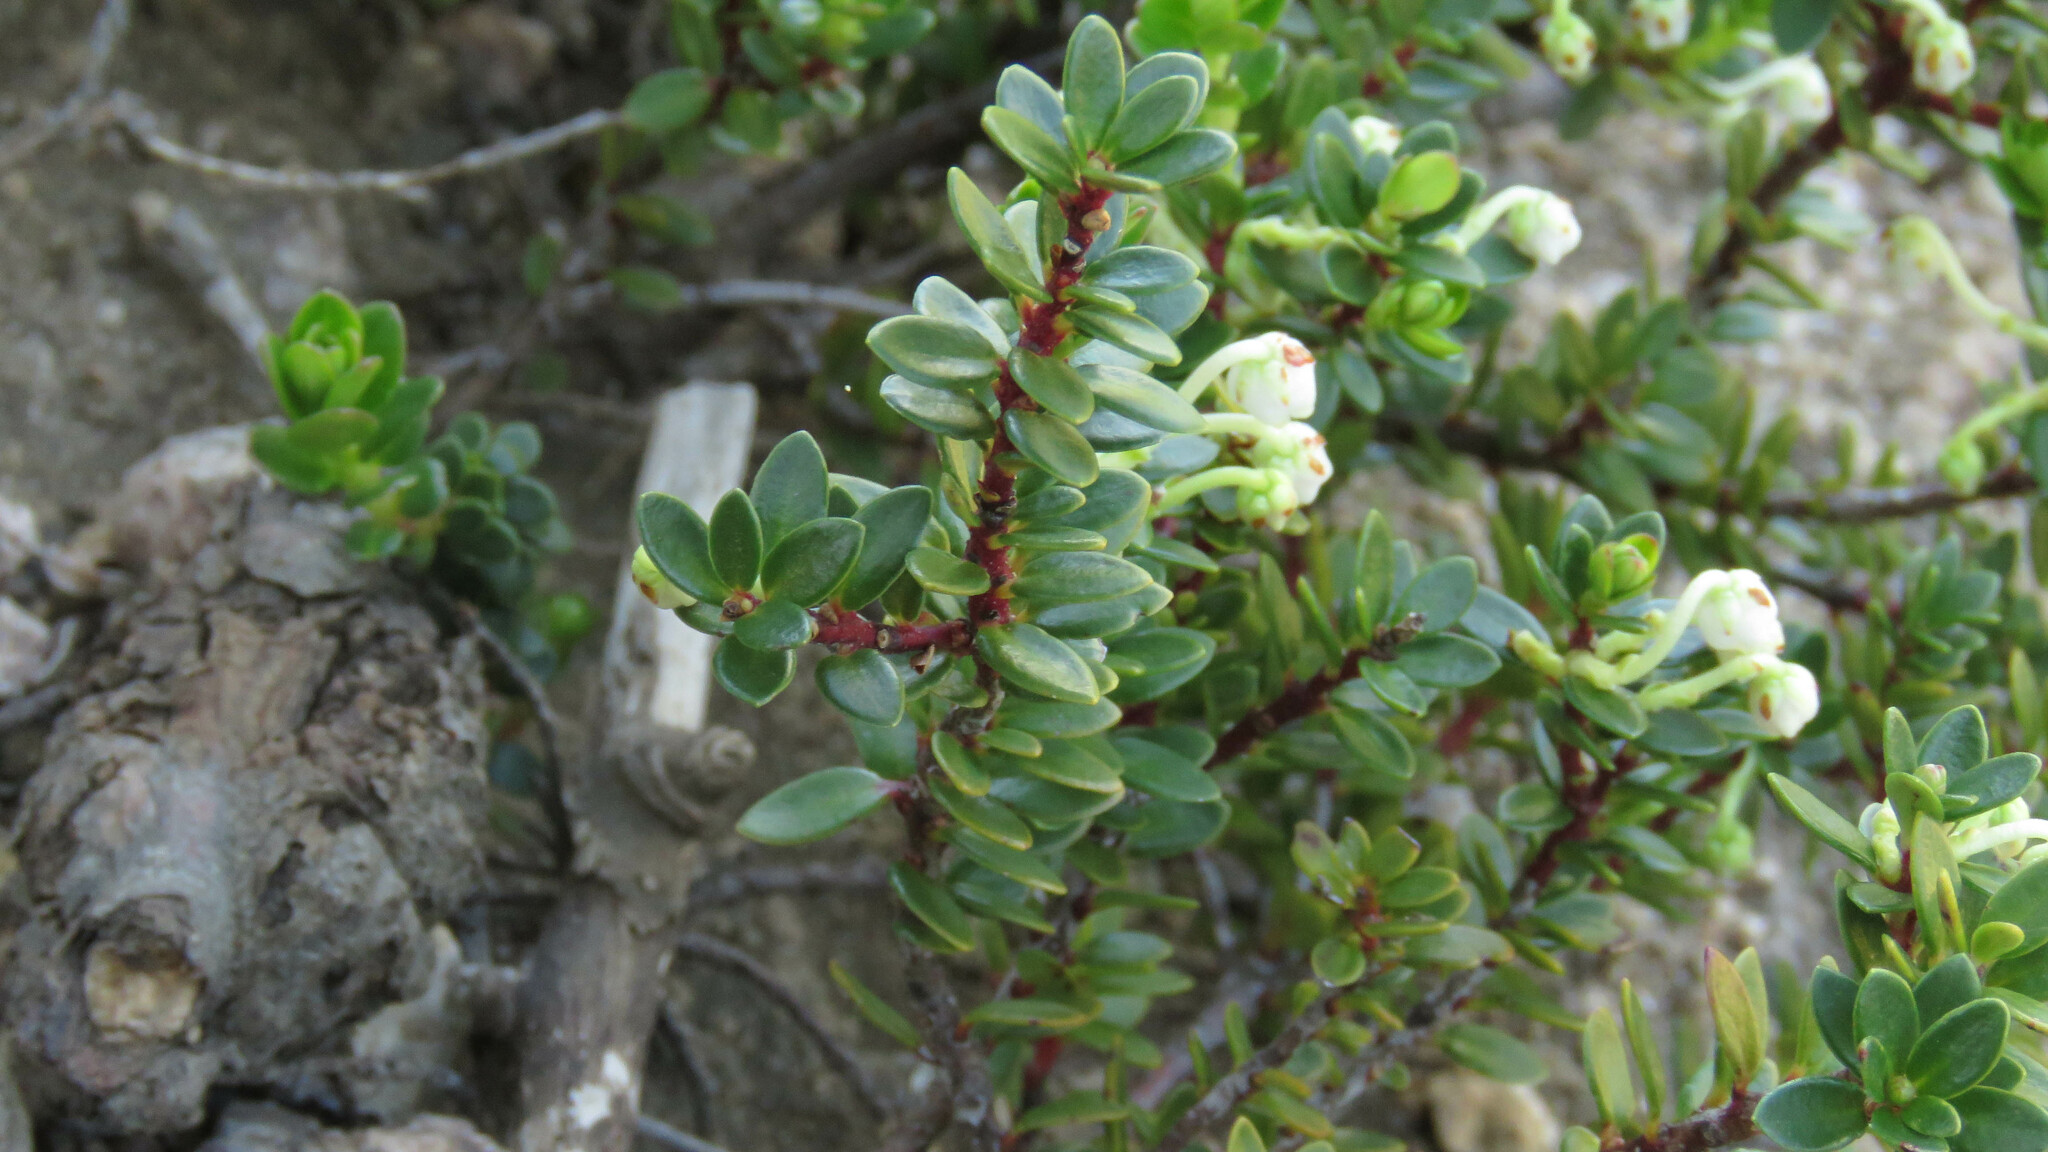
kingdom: Plantae
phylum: Tracheophyta
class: Magnoliopsida
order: Ericales
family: Ericaceae
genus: Gaultheria
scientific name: Gaultheria pumila
